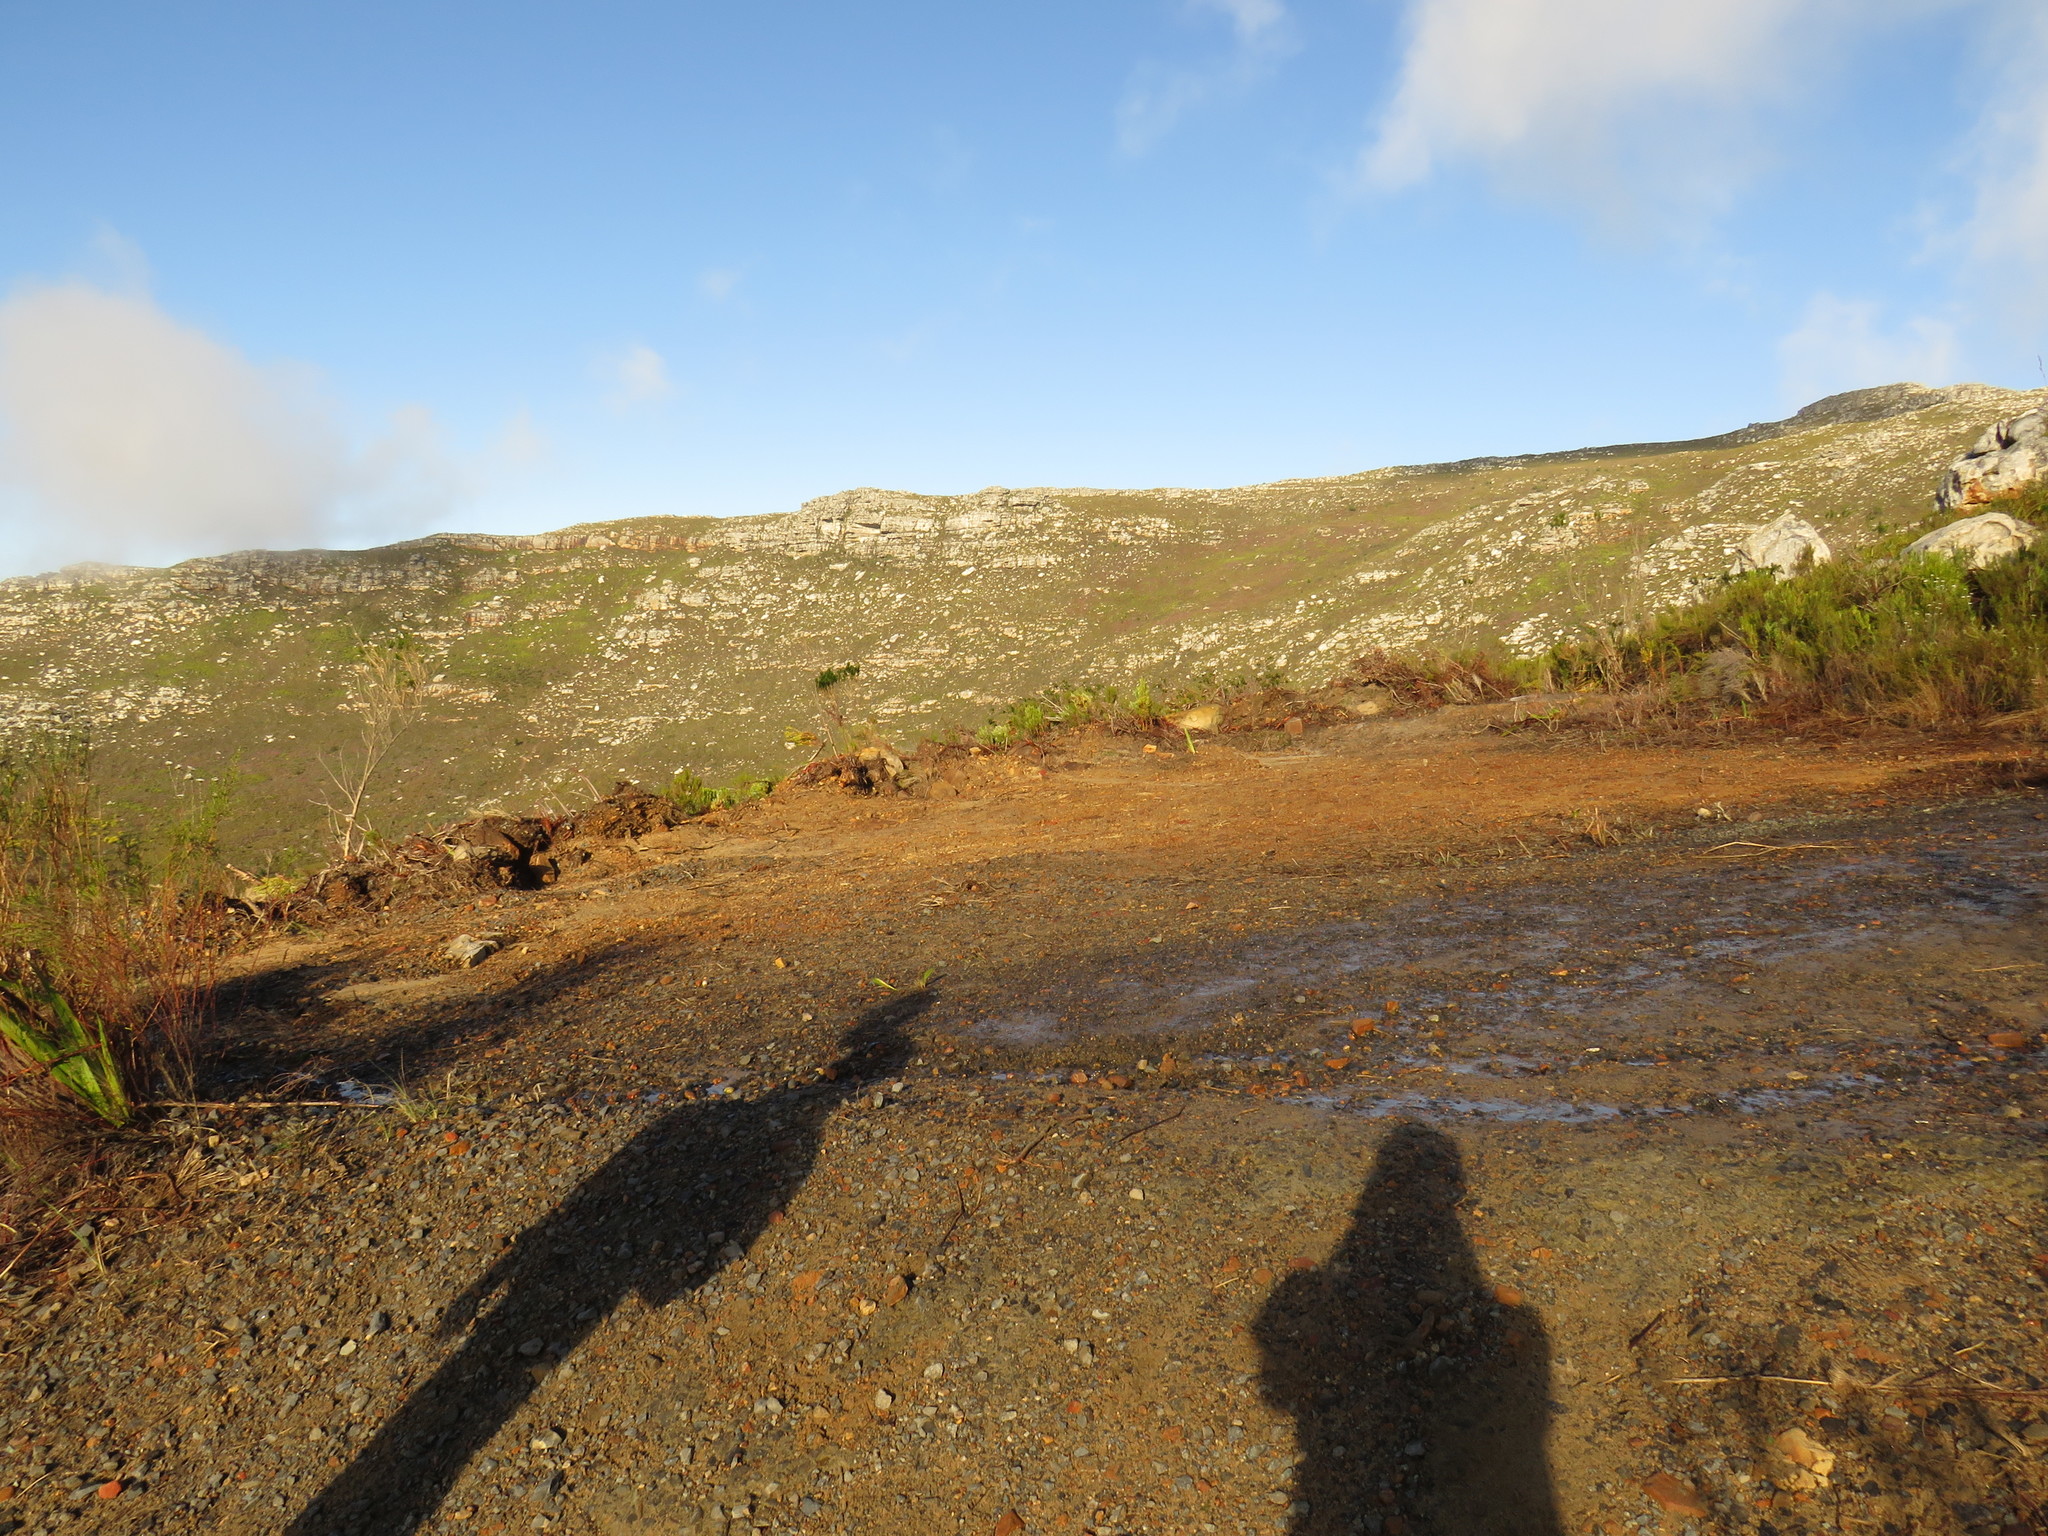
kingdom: Plantae
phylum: Tracheophyta
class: Magnoliopsida
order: Fabales
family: Fabaceae
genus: Psoralea
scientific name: Psoralea pinnata
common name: African scurfpea
